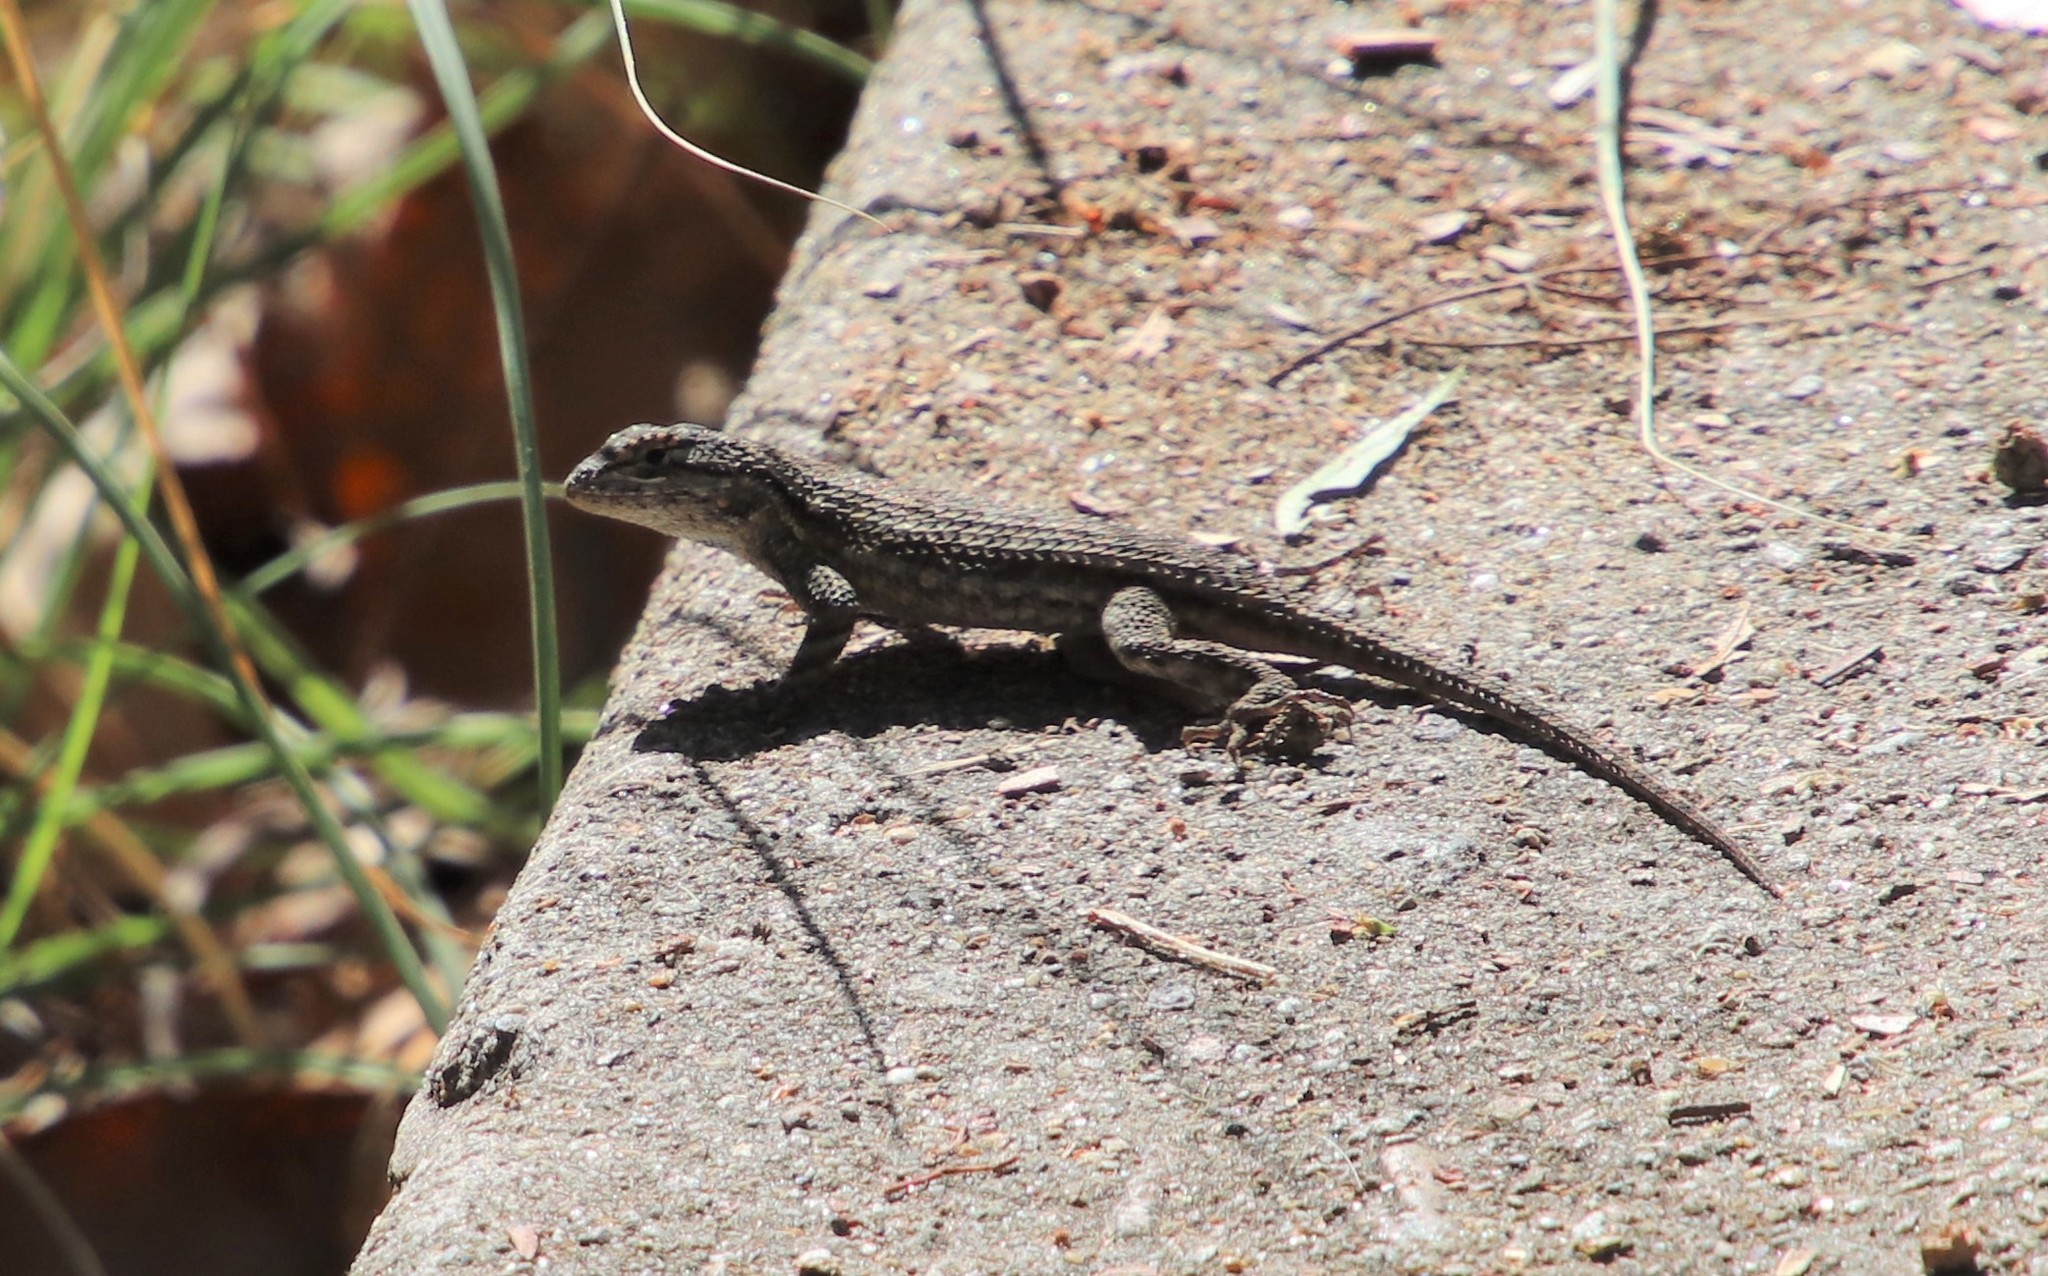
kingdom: Animalia
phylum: Chordata
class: Squamata
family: Phrynosomatidae
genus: Sceloporus
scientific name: Sceloporus occidentalis
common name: Western fence lizard
